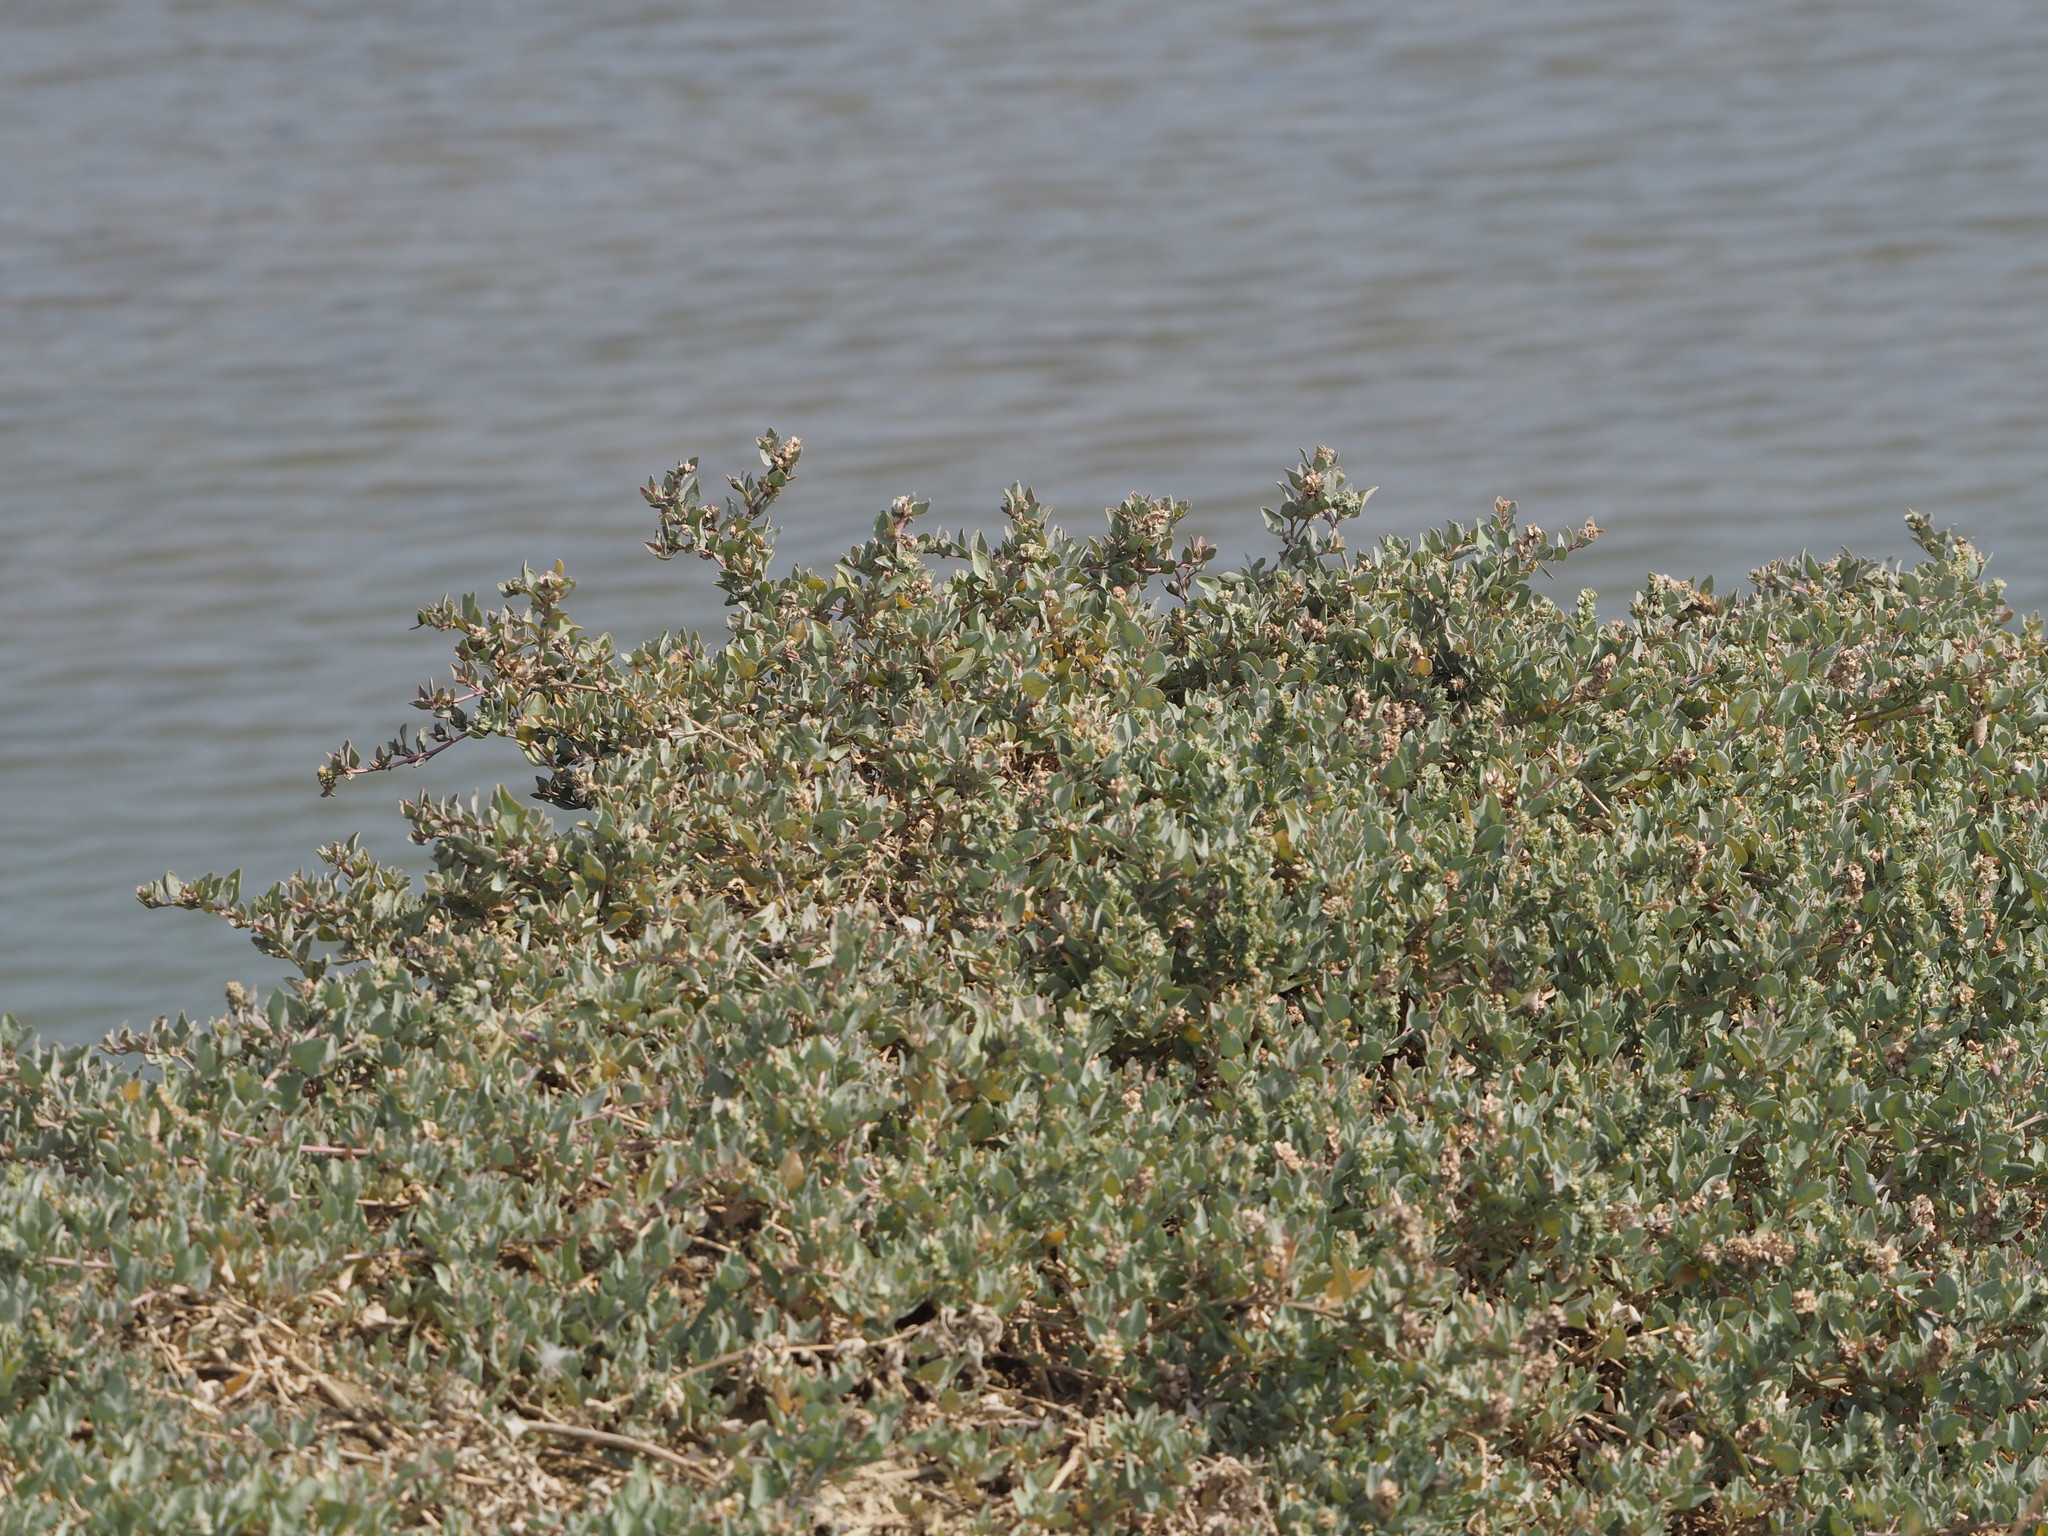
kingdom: Plantae
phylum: Tracheophyta
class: Magnoliopsida
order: Caryophyllales
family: Amaranthaceae
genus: Atriplex
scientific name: Atriplex maximowicziana
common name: Maximowicz's saltbush
